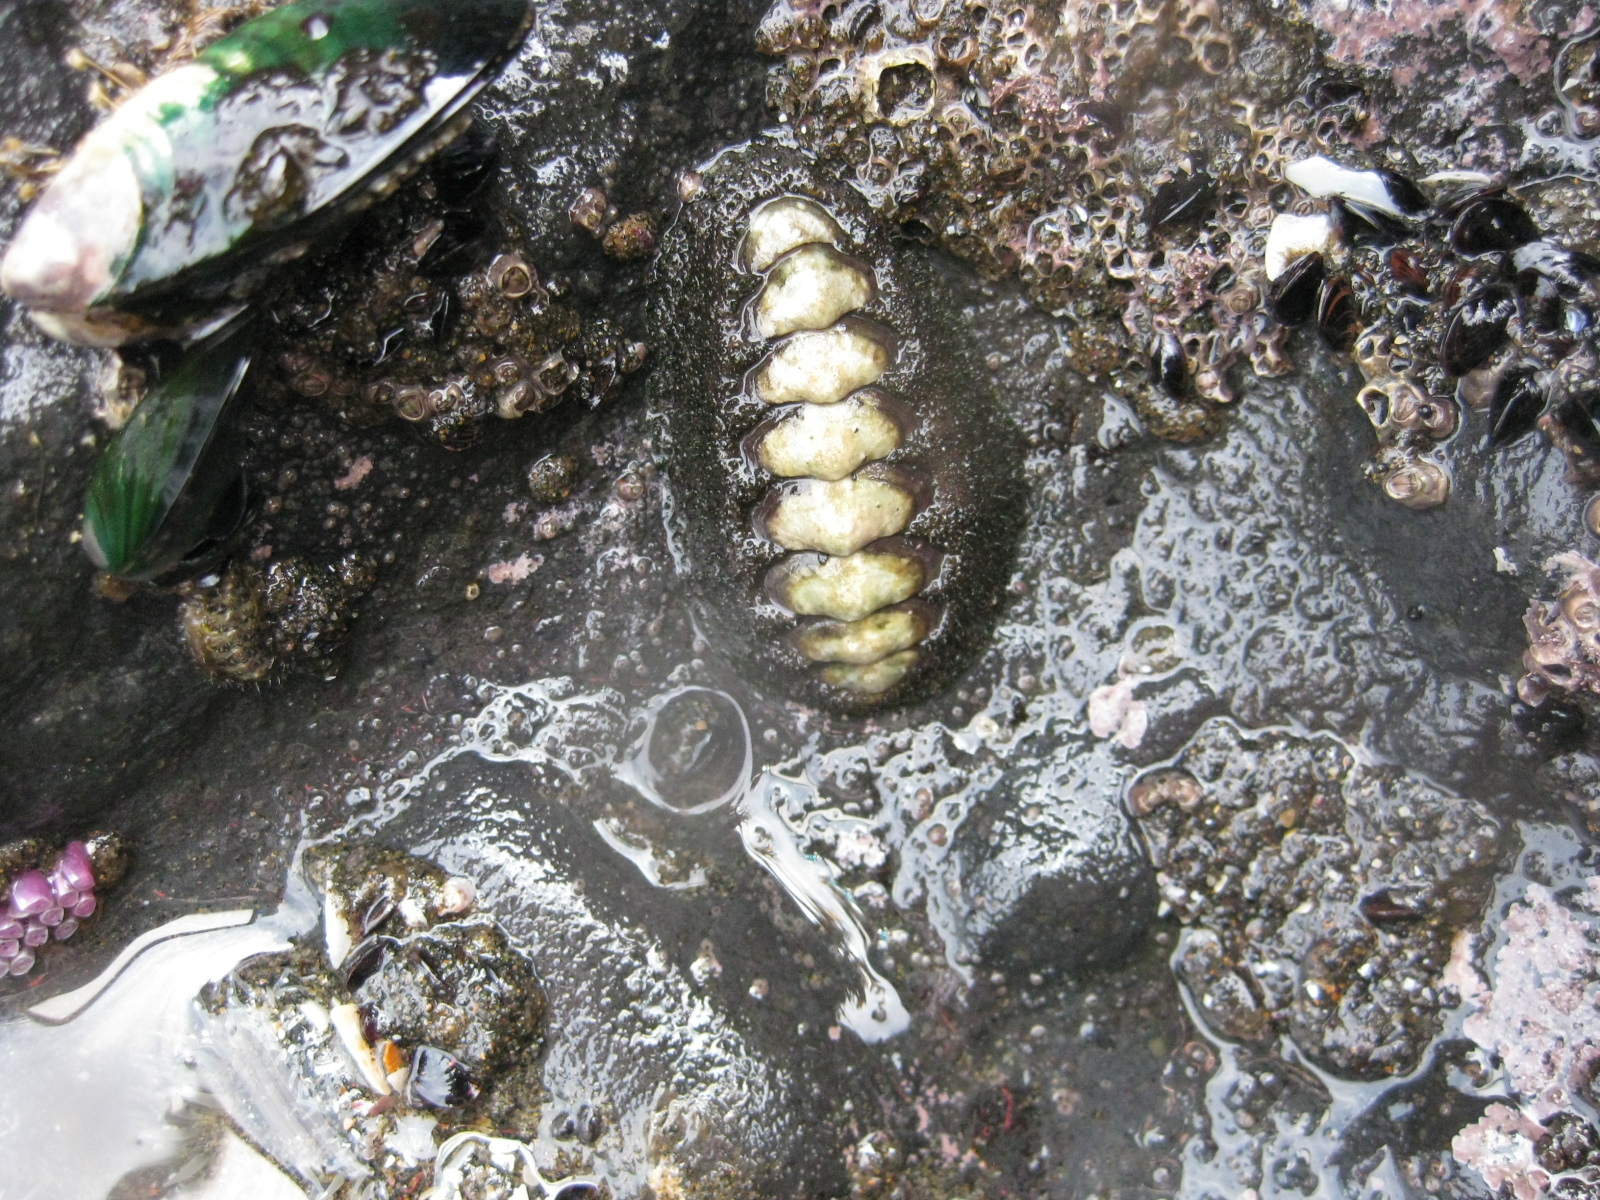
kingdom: Animalia
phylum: Mollusca
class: Polyplacophora
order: Chitonida
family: Mopaliidae
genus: Plaxiphora
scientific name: Plaxiphora obtecta
